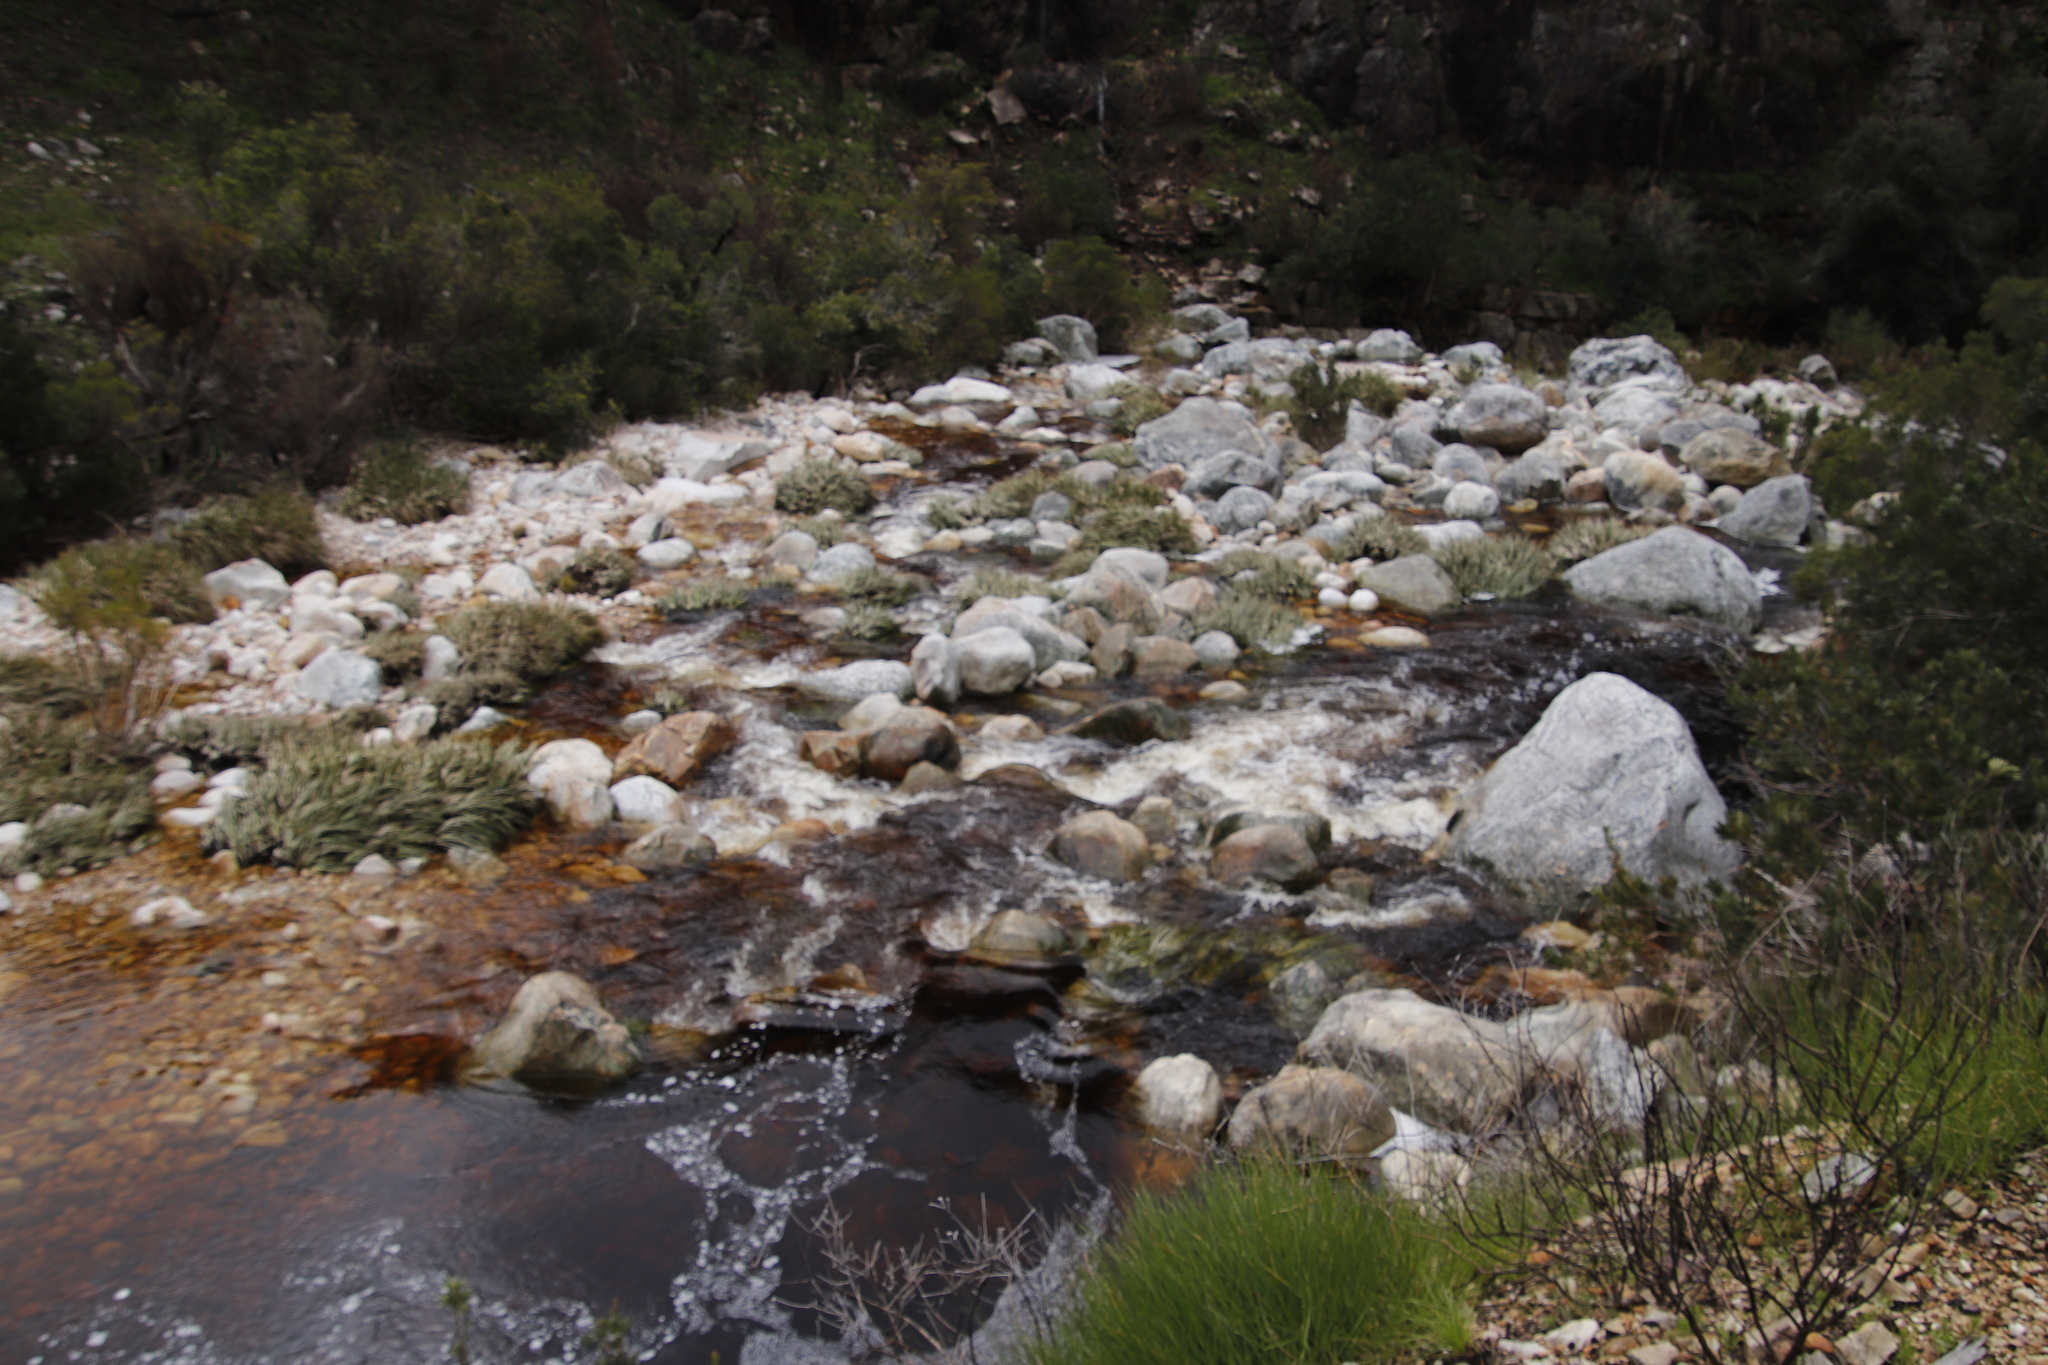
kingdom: Plantae
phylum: Tracheophyta
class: Liliopsida
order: Poales
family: Thurniaceae
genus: Prionium
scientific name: Prionium serratum
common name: Palmiet
